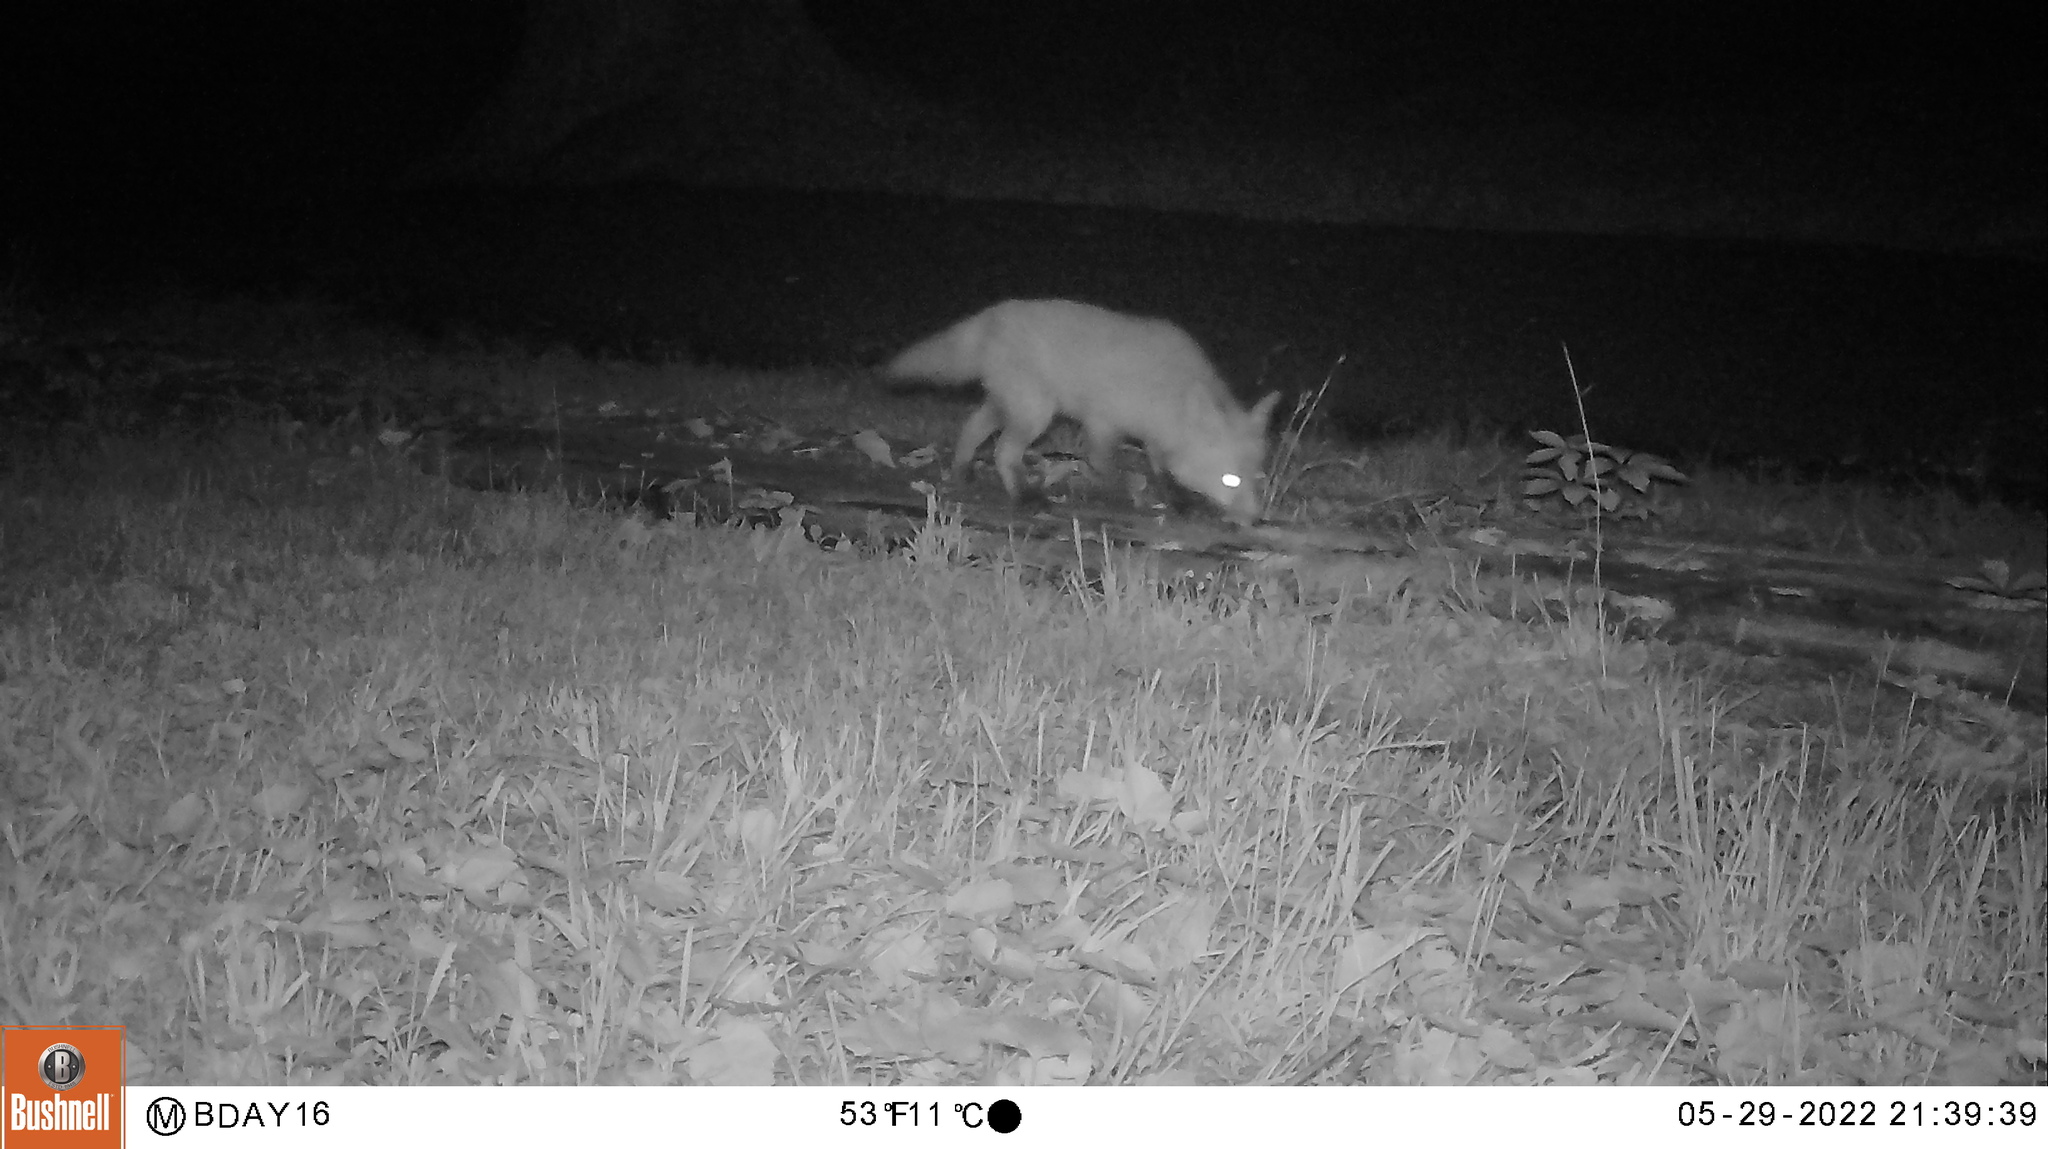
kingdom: Animalia
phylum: Chordata
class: Mammalia
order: Carnivora
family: Canidae
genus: Vulpes
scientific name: Vulpes vulpes
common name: Red fox
